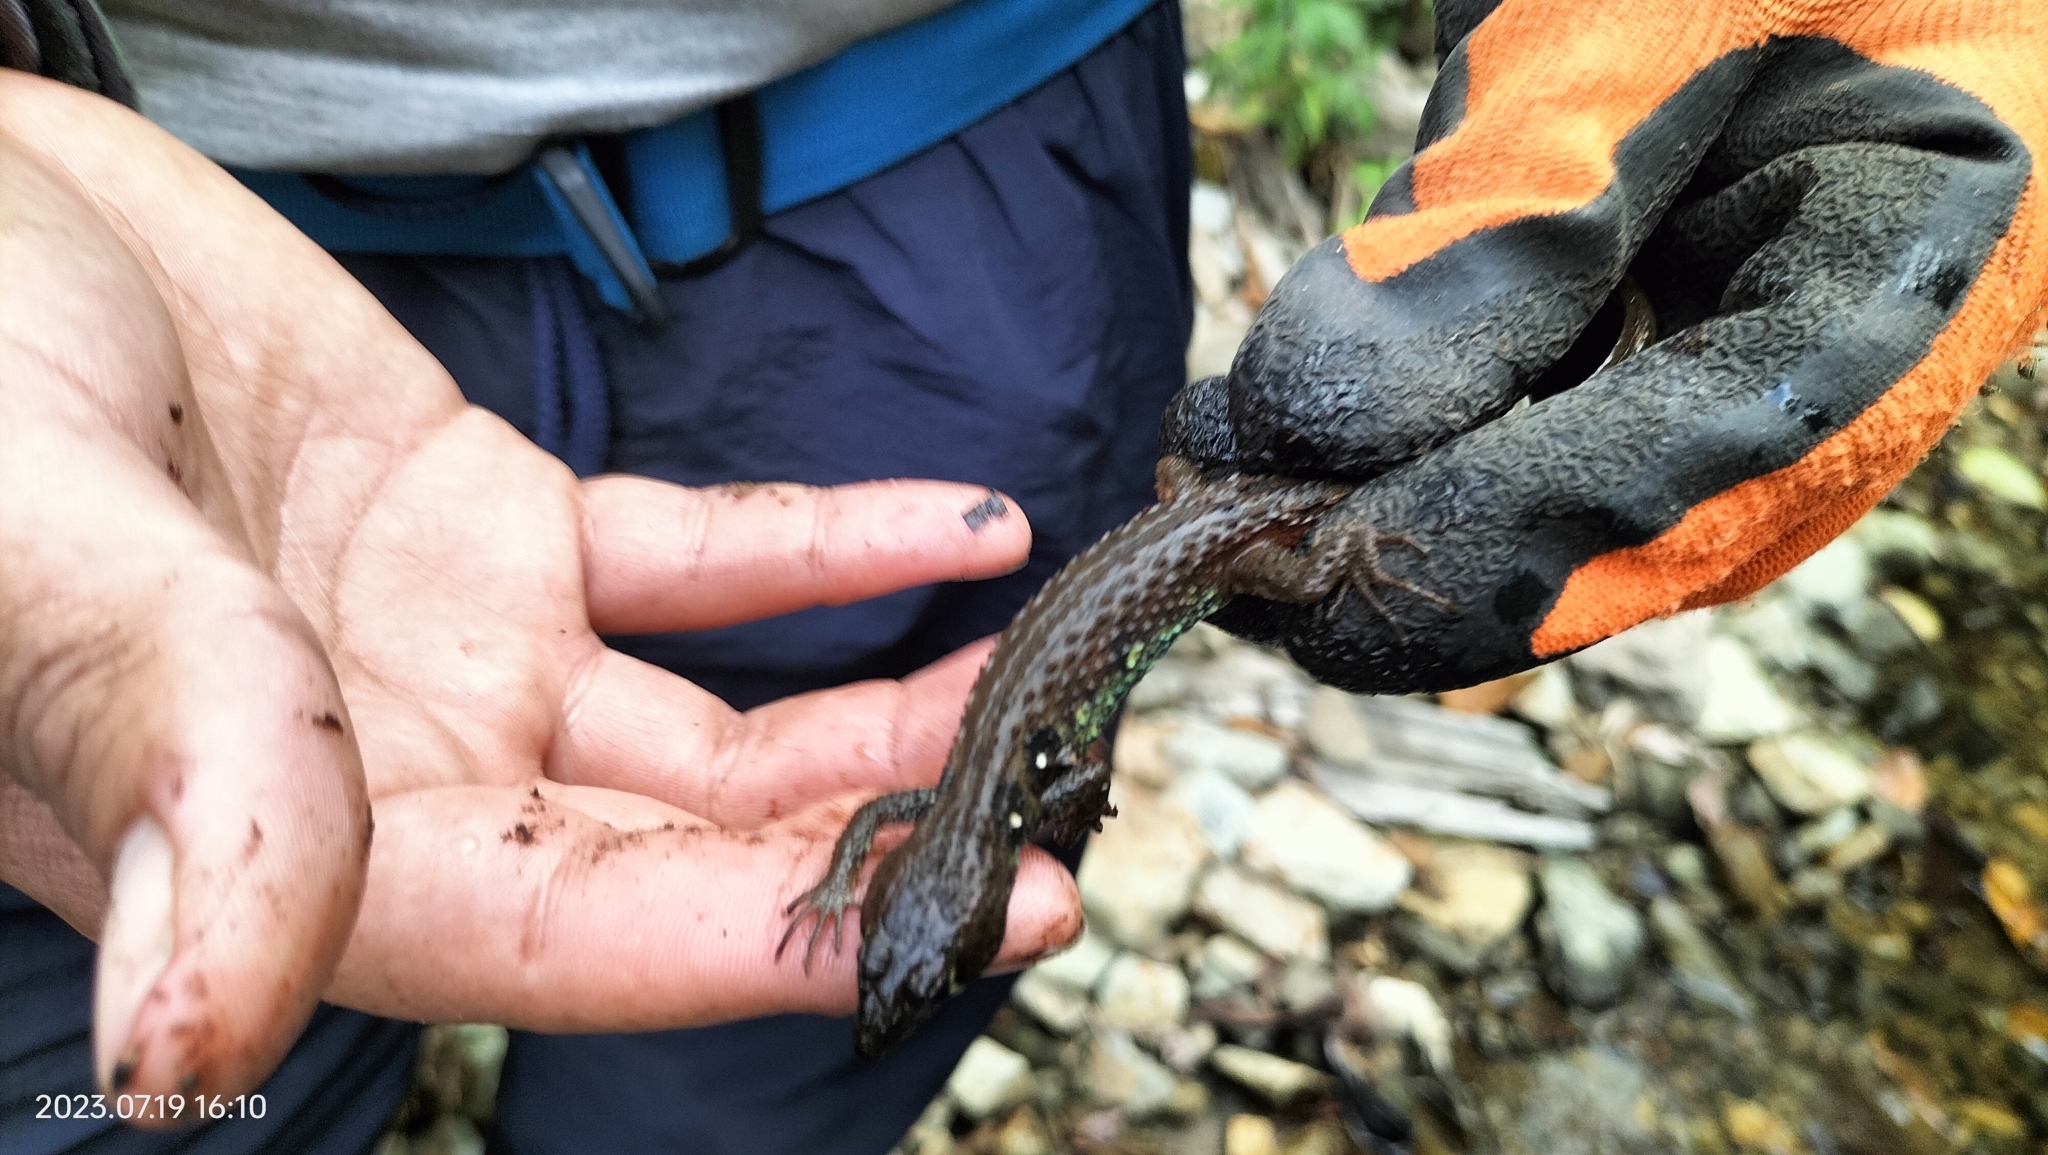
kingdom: Animalia
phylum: Chordata
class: Squamata
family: Gymnophthalmidae
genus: Potamites
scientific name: Potamites montanicola
